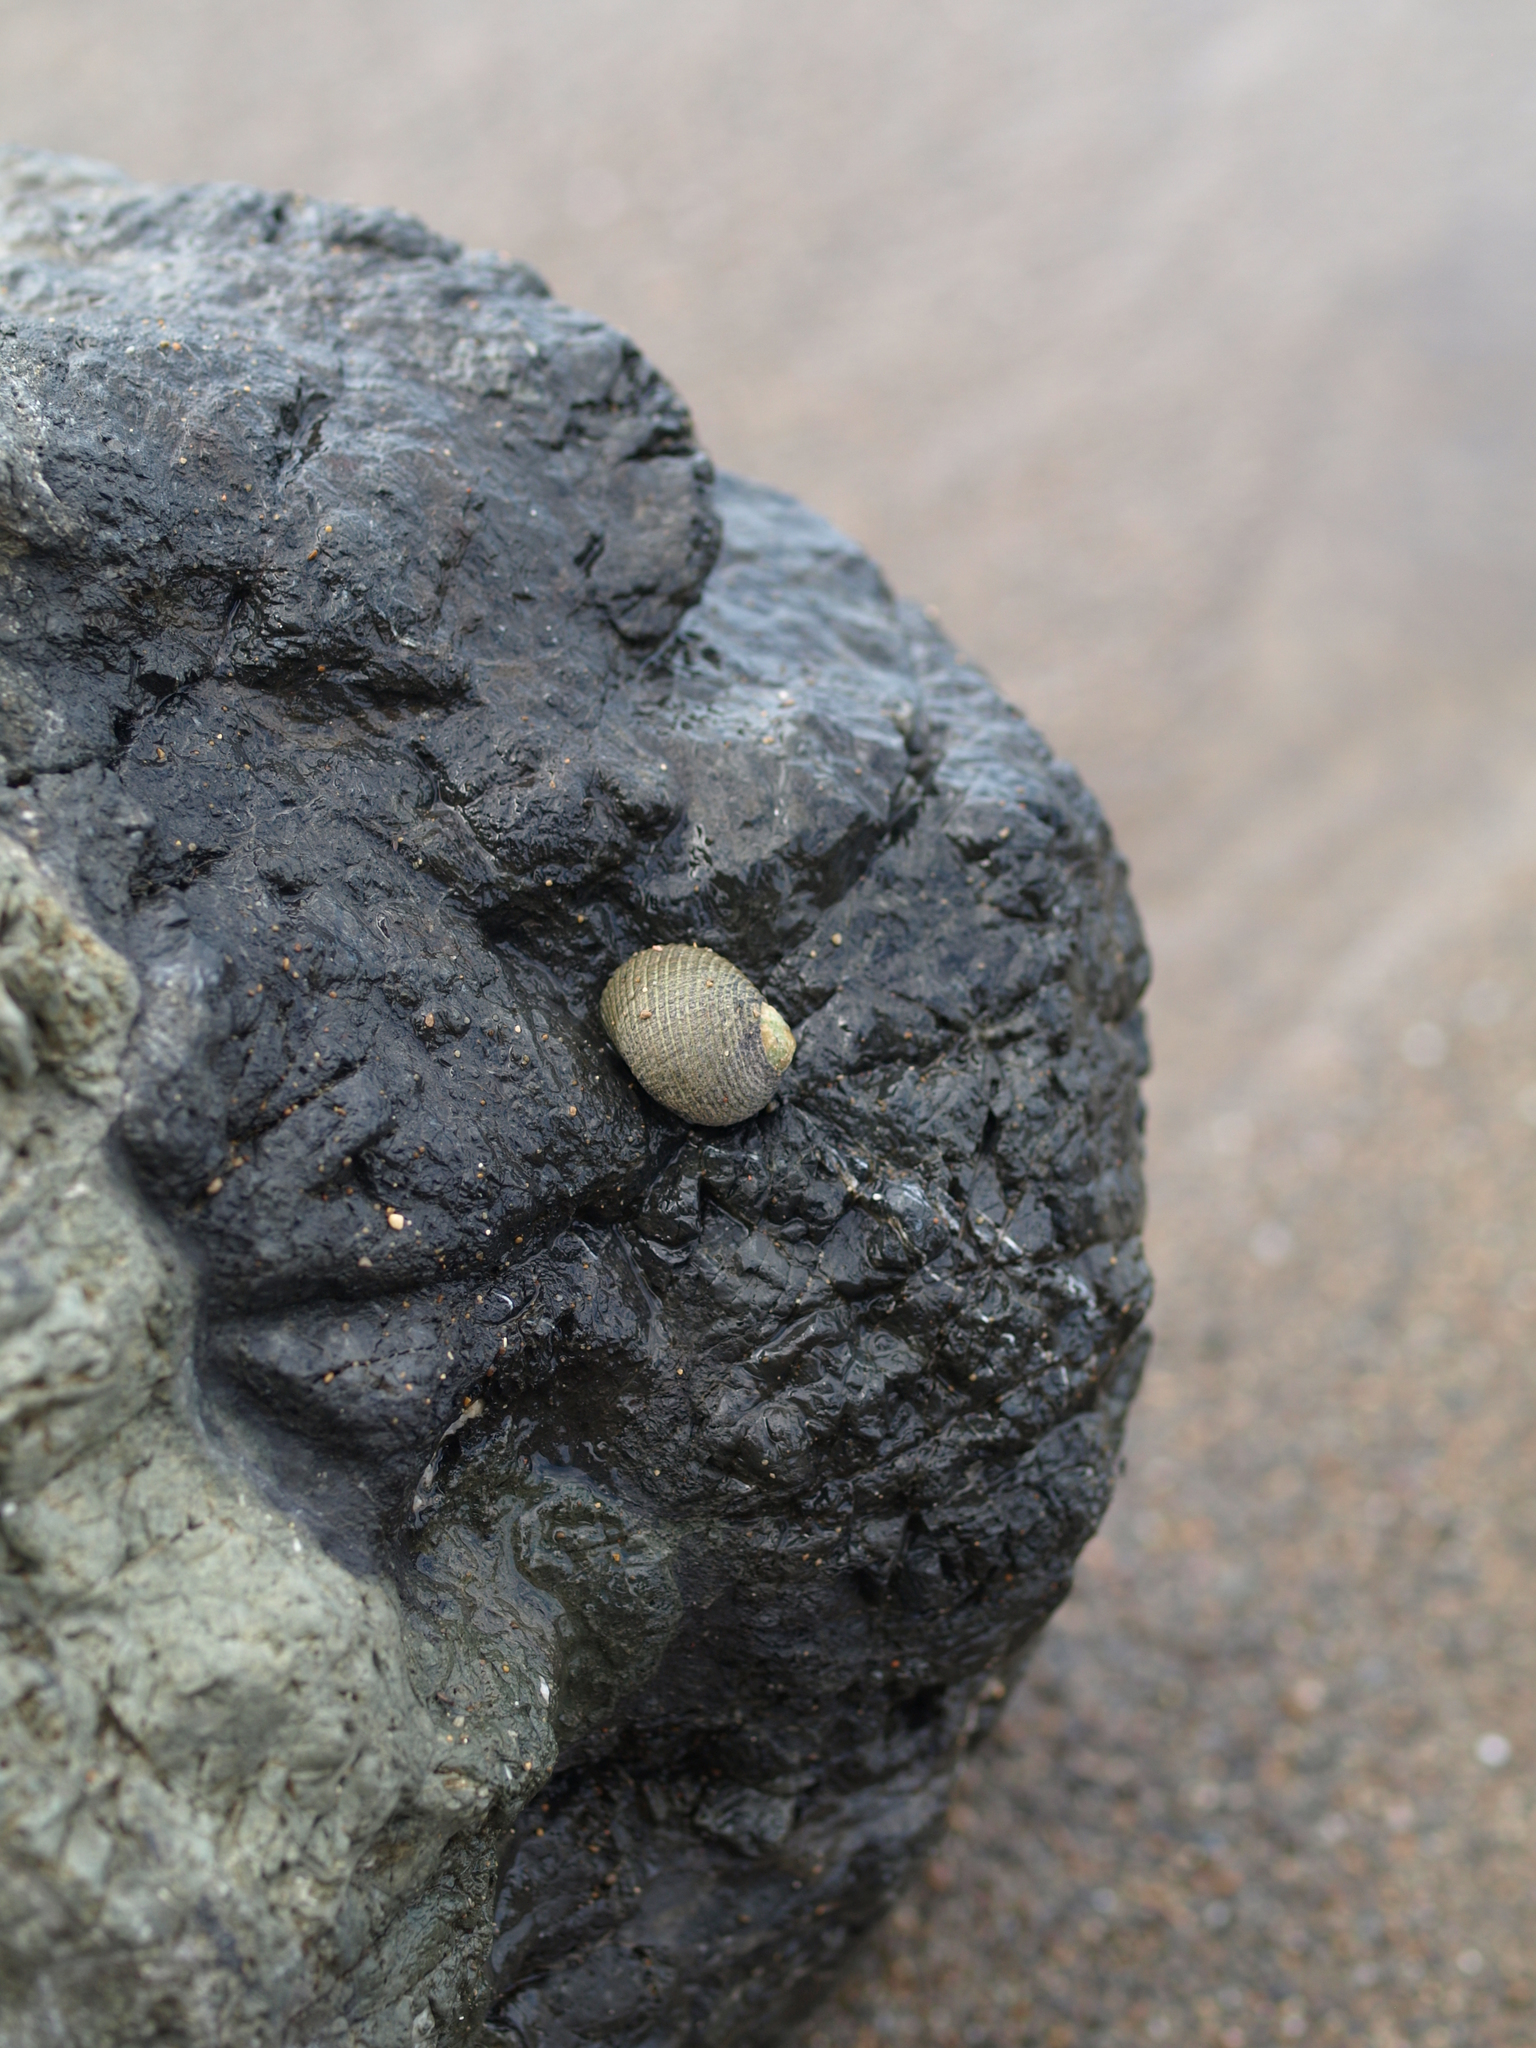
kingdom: Animalia
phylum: Mollusca
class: Gastropoda
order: Cycloneritida
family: Neritidae
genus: Nerita
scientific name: Nerita scabricosta
